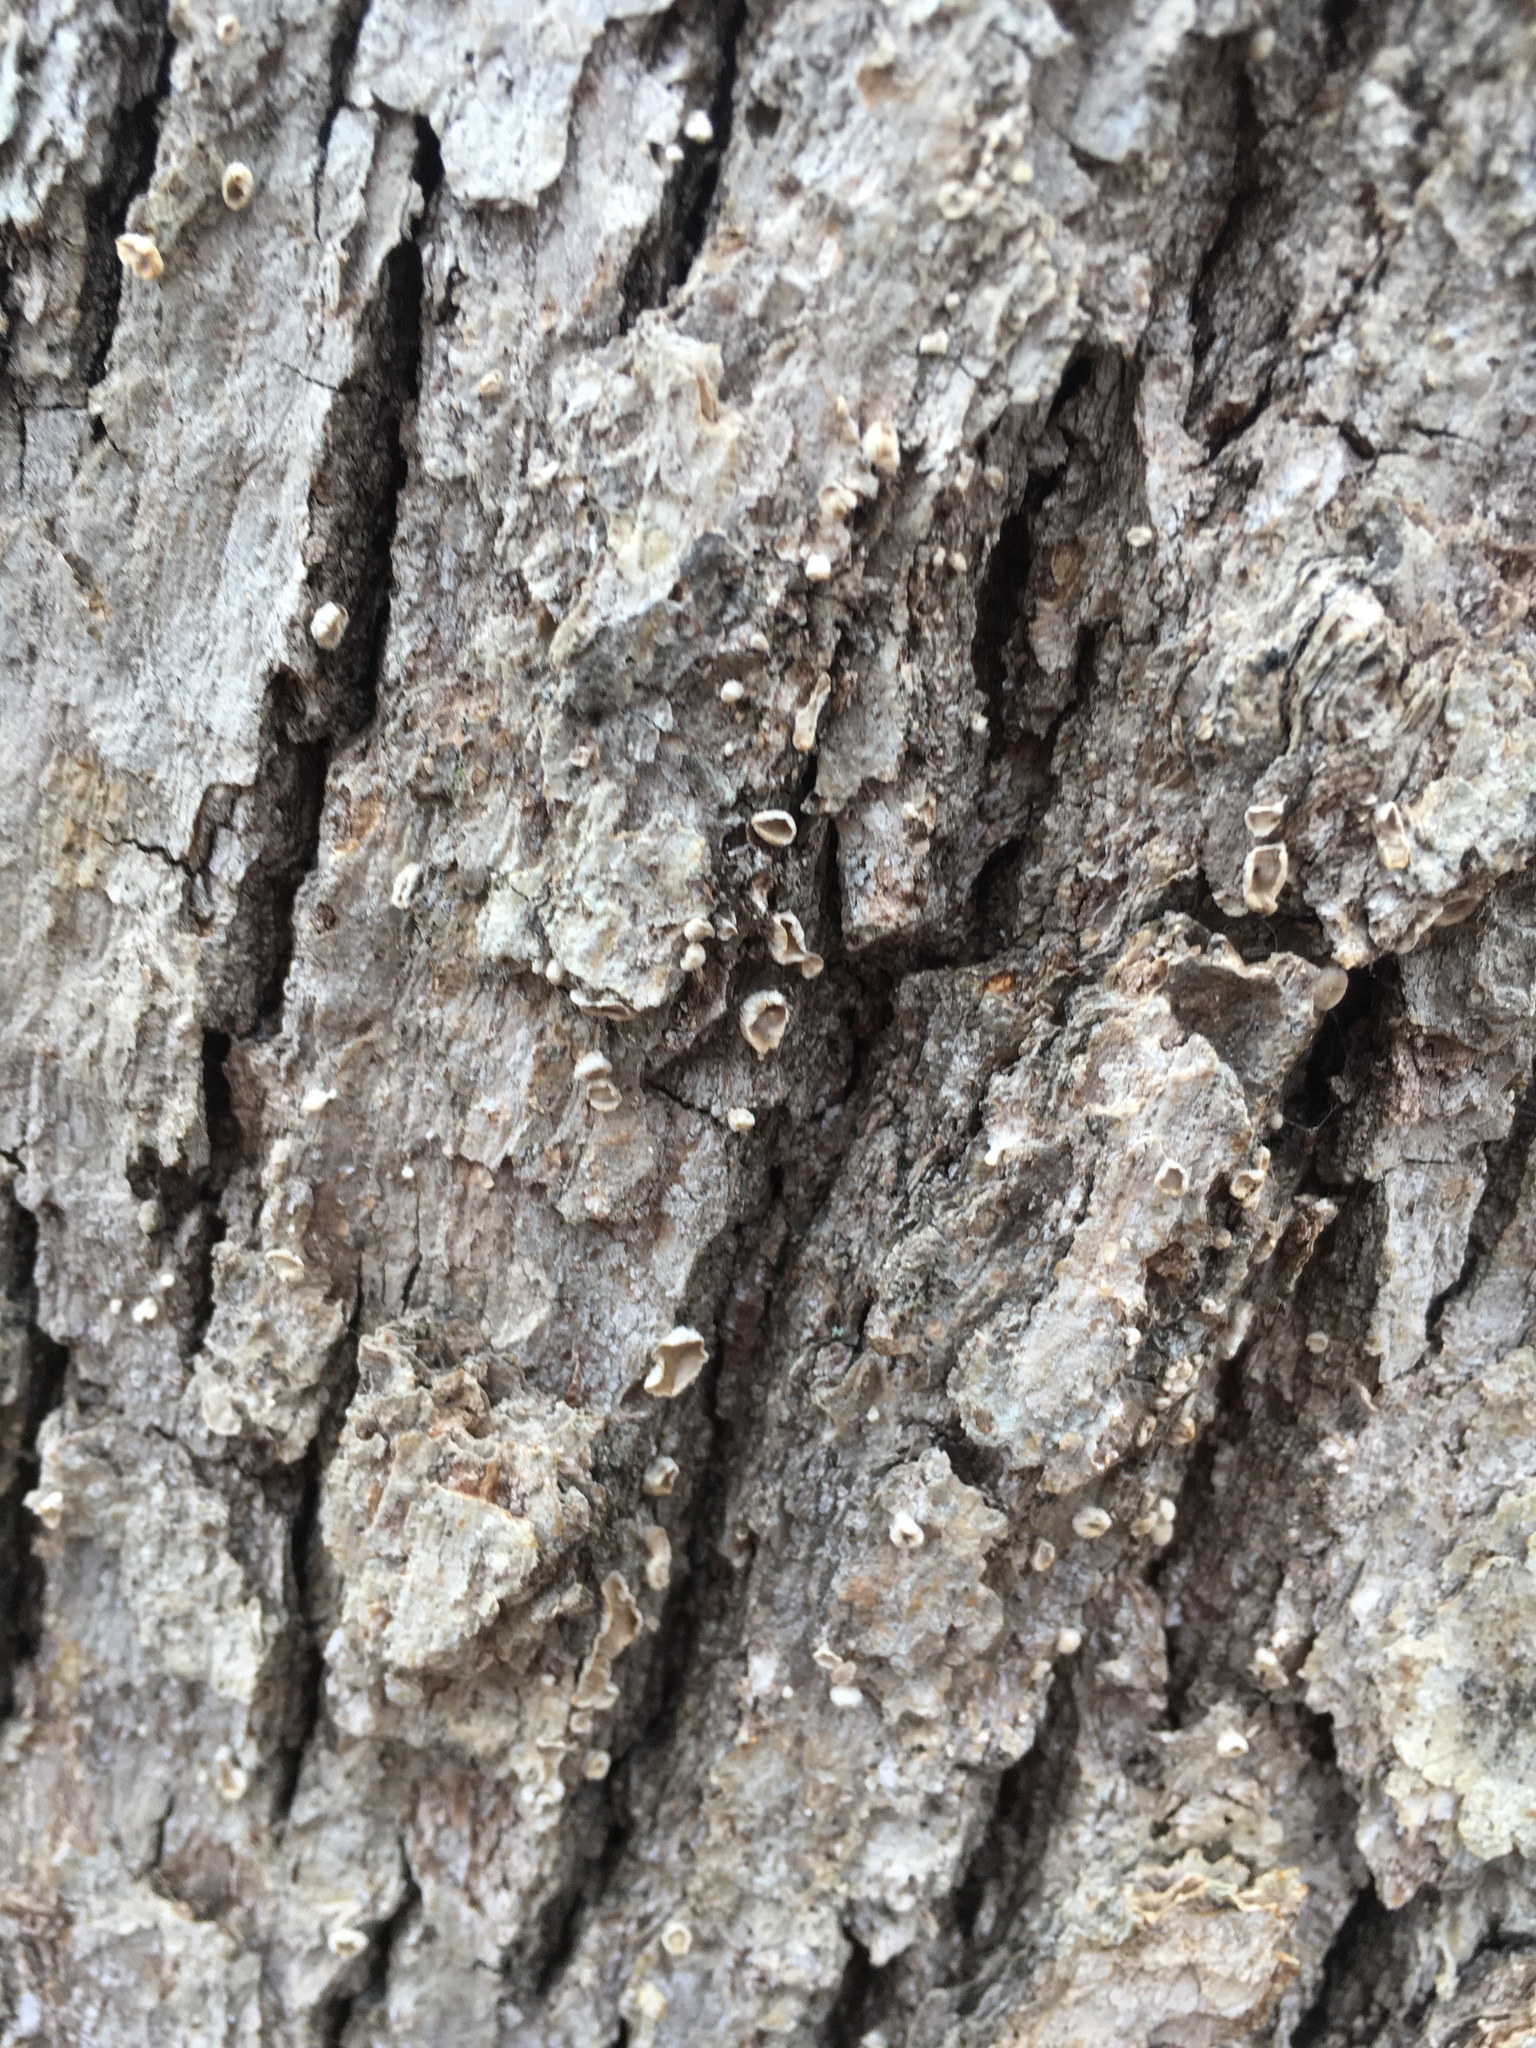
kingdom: Fungi
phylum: Basidiomycota
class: Agaricomycetes
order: Russulales
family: Stereaceae
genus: Acanthophysium
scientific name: Acanthophysium oakesii
